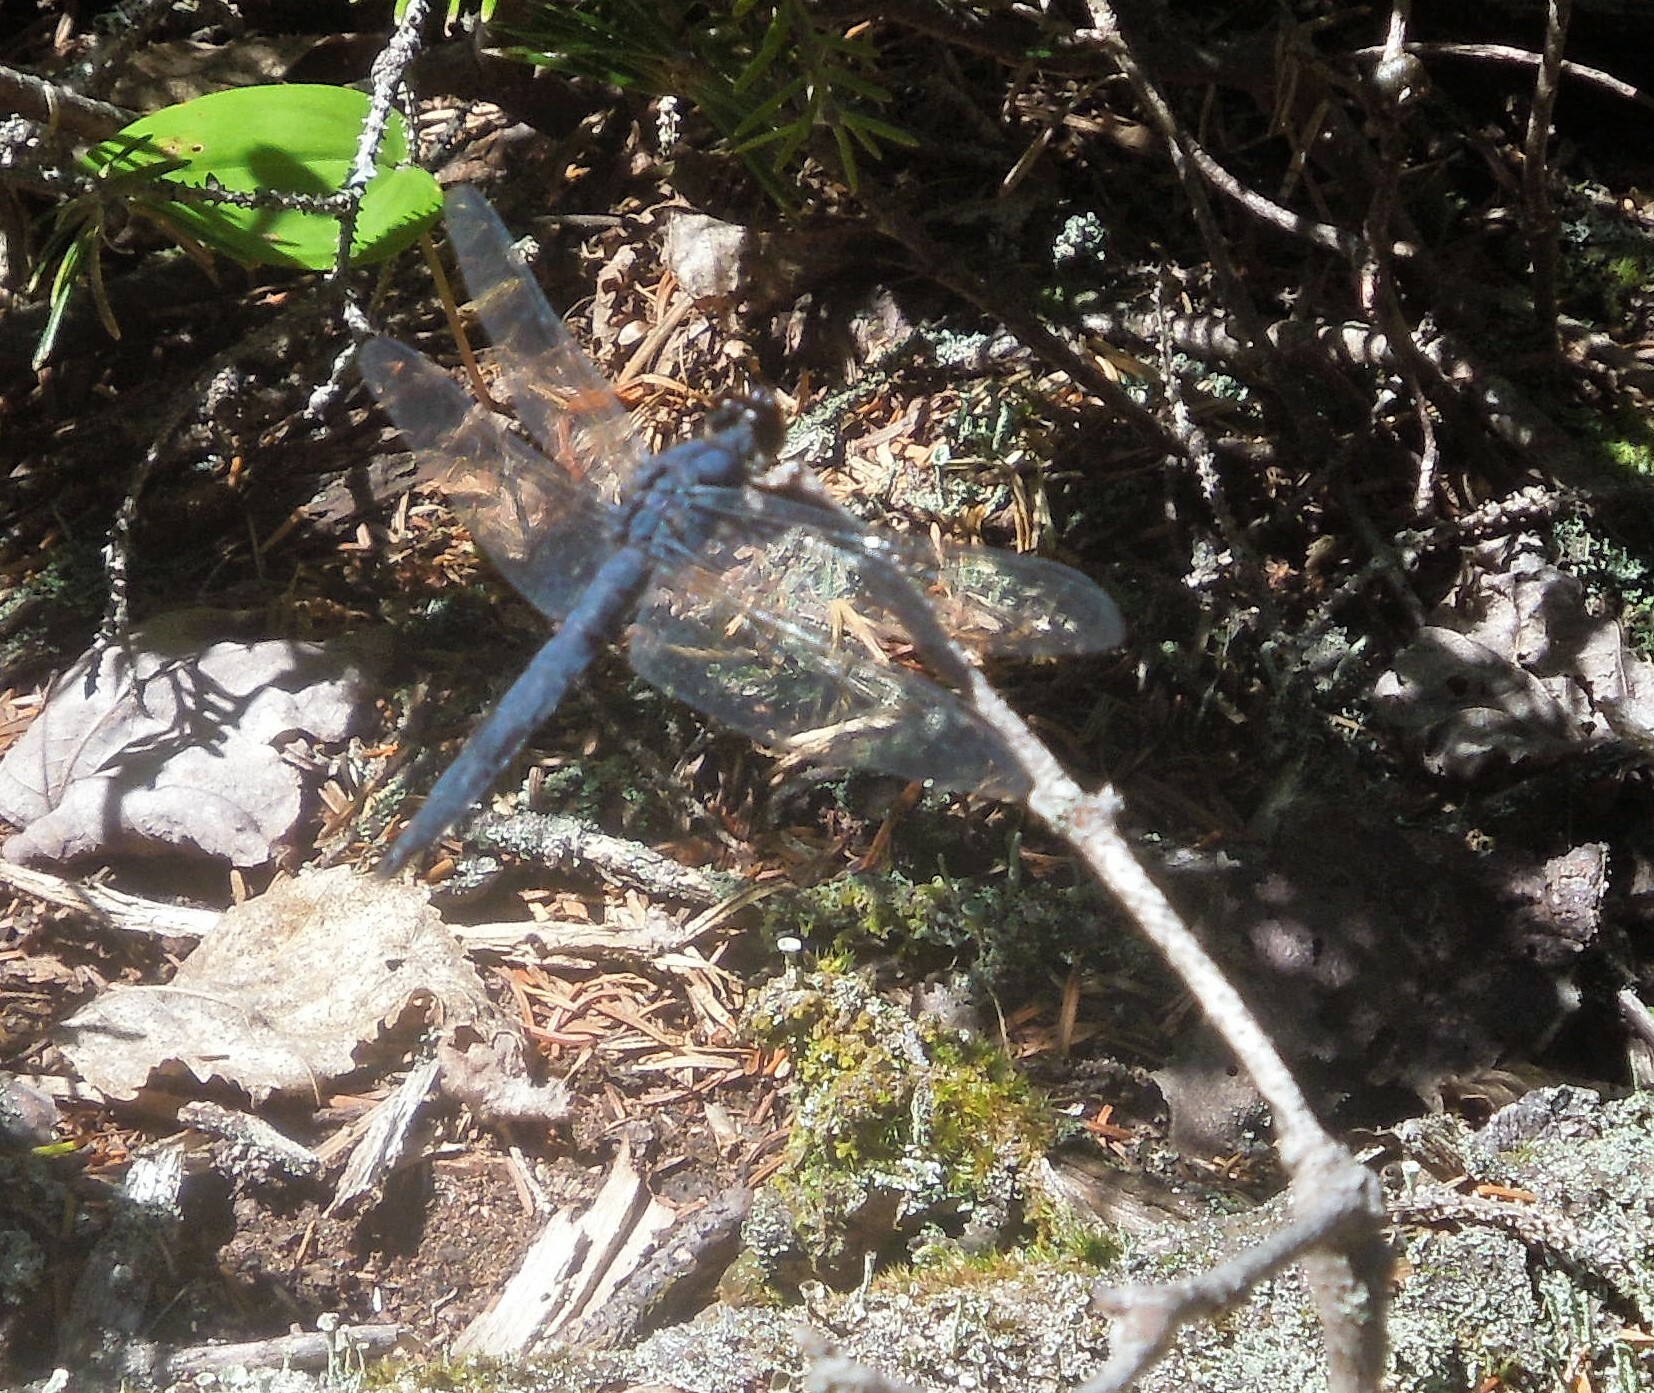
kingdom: Animalia
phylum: Arthropoda
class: Insecta
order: Odonata
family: Libellulidae
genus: Libellula
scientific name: Libellula incesta
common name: Slaty skimmer
